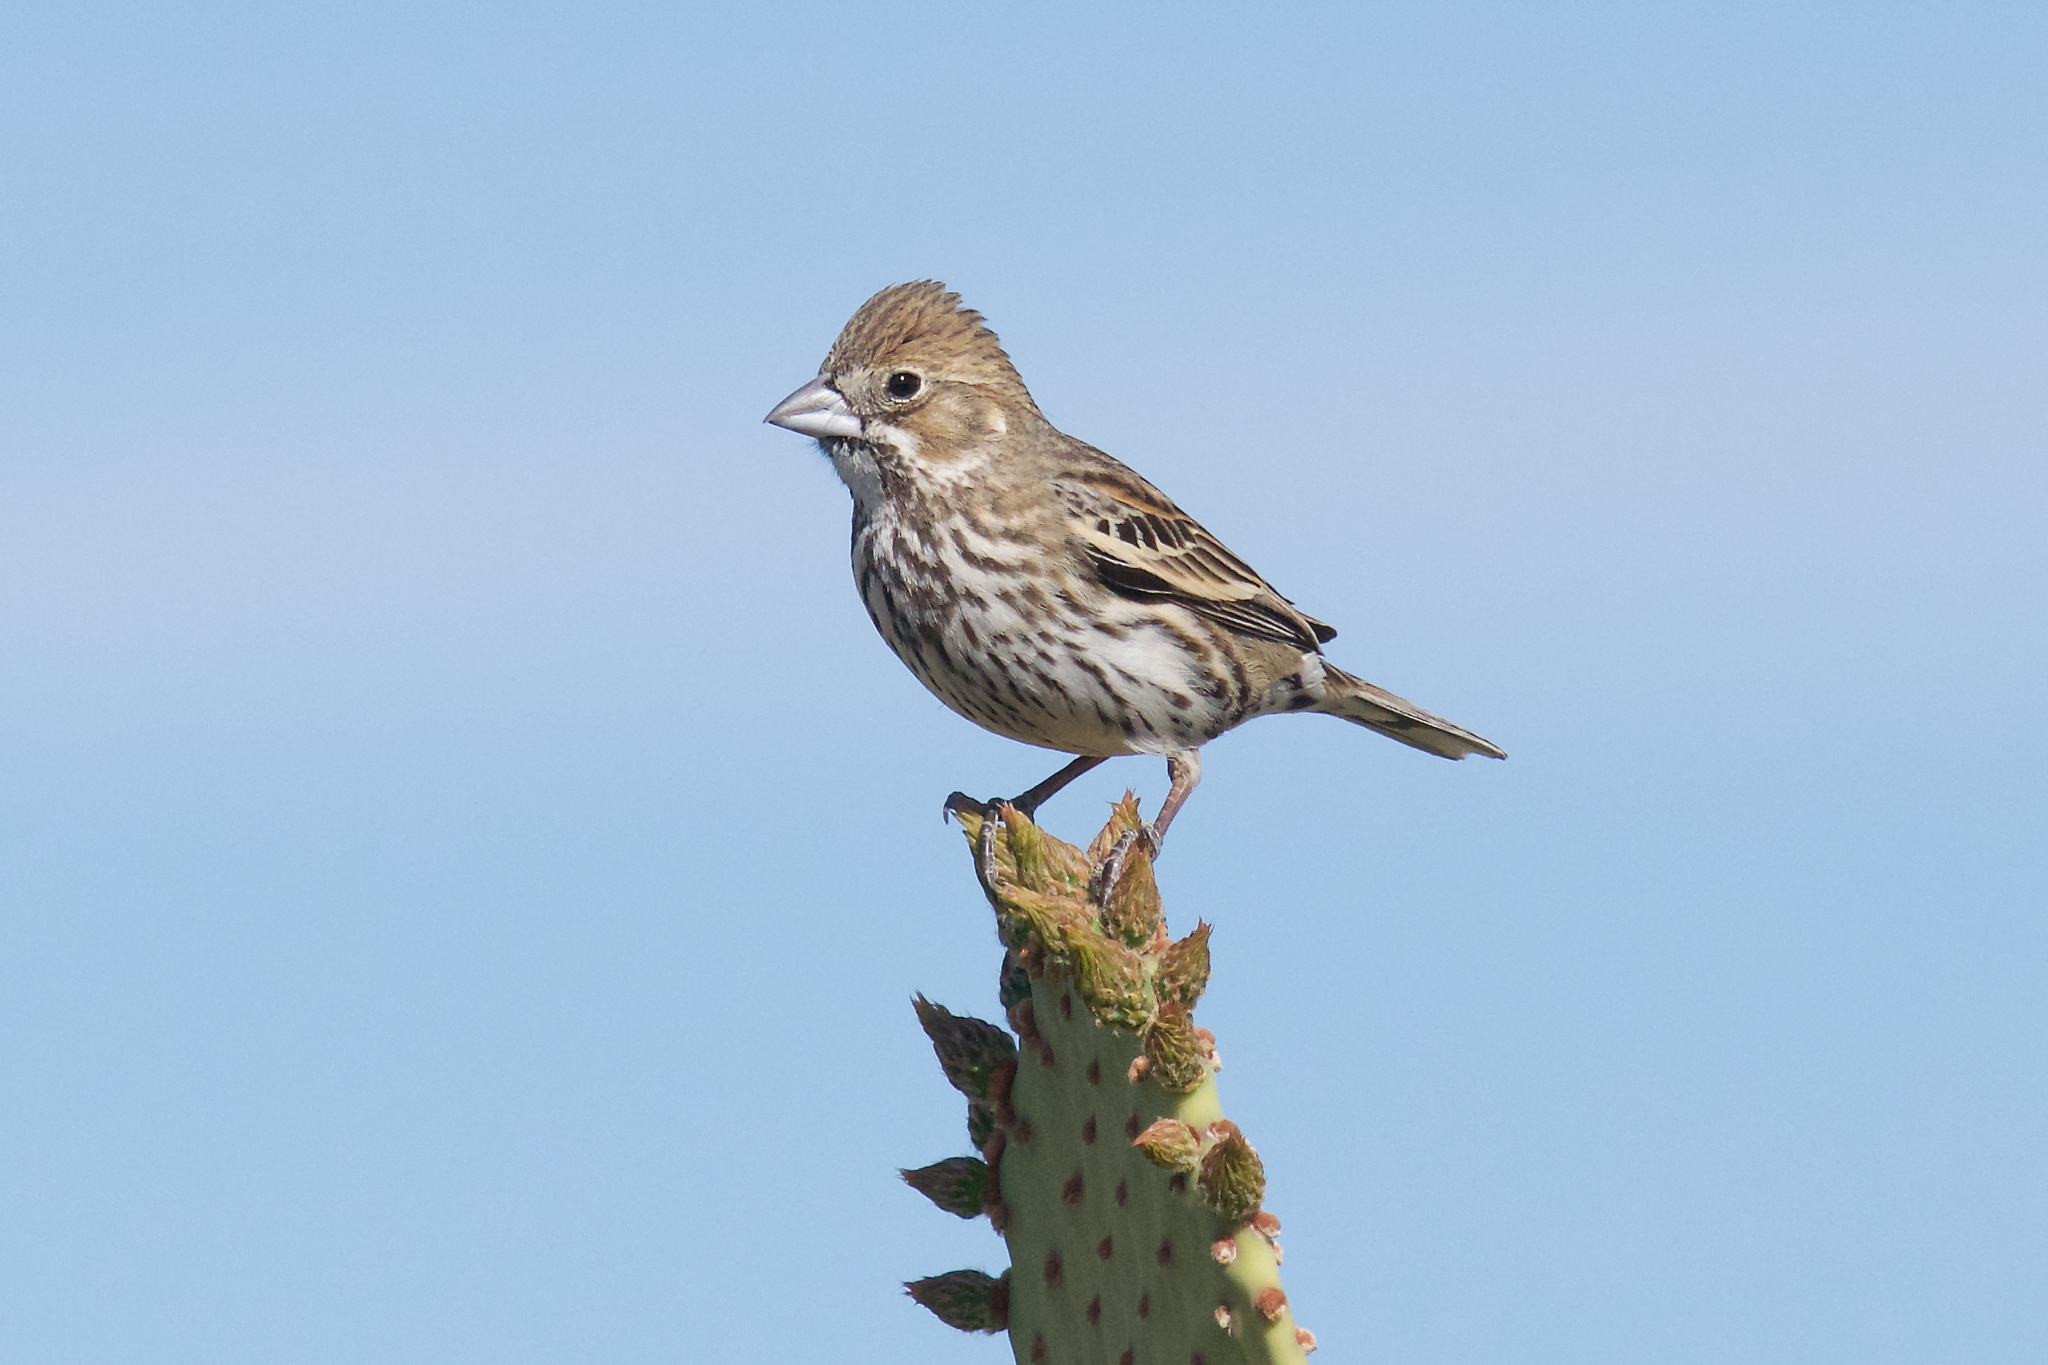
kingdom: Animalia
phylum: Chordata
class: Aves
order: Passeriformes
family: Passerellidae
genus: Calamospiza
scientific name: Calamospiza melanocorys
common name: Lark bunting
